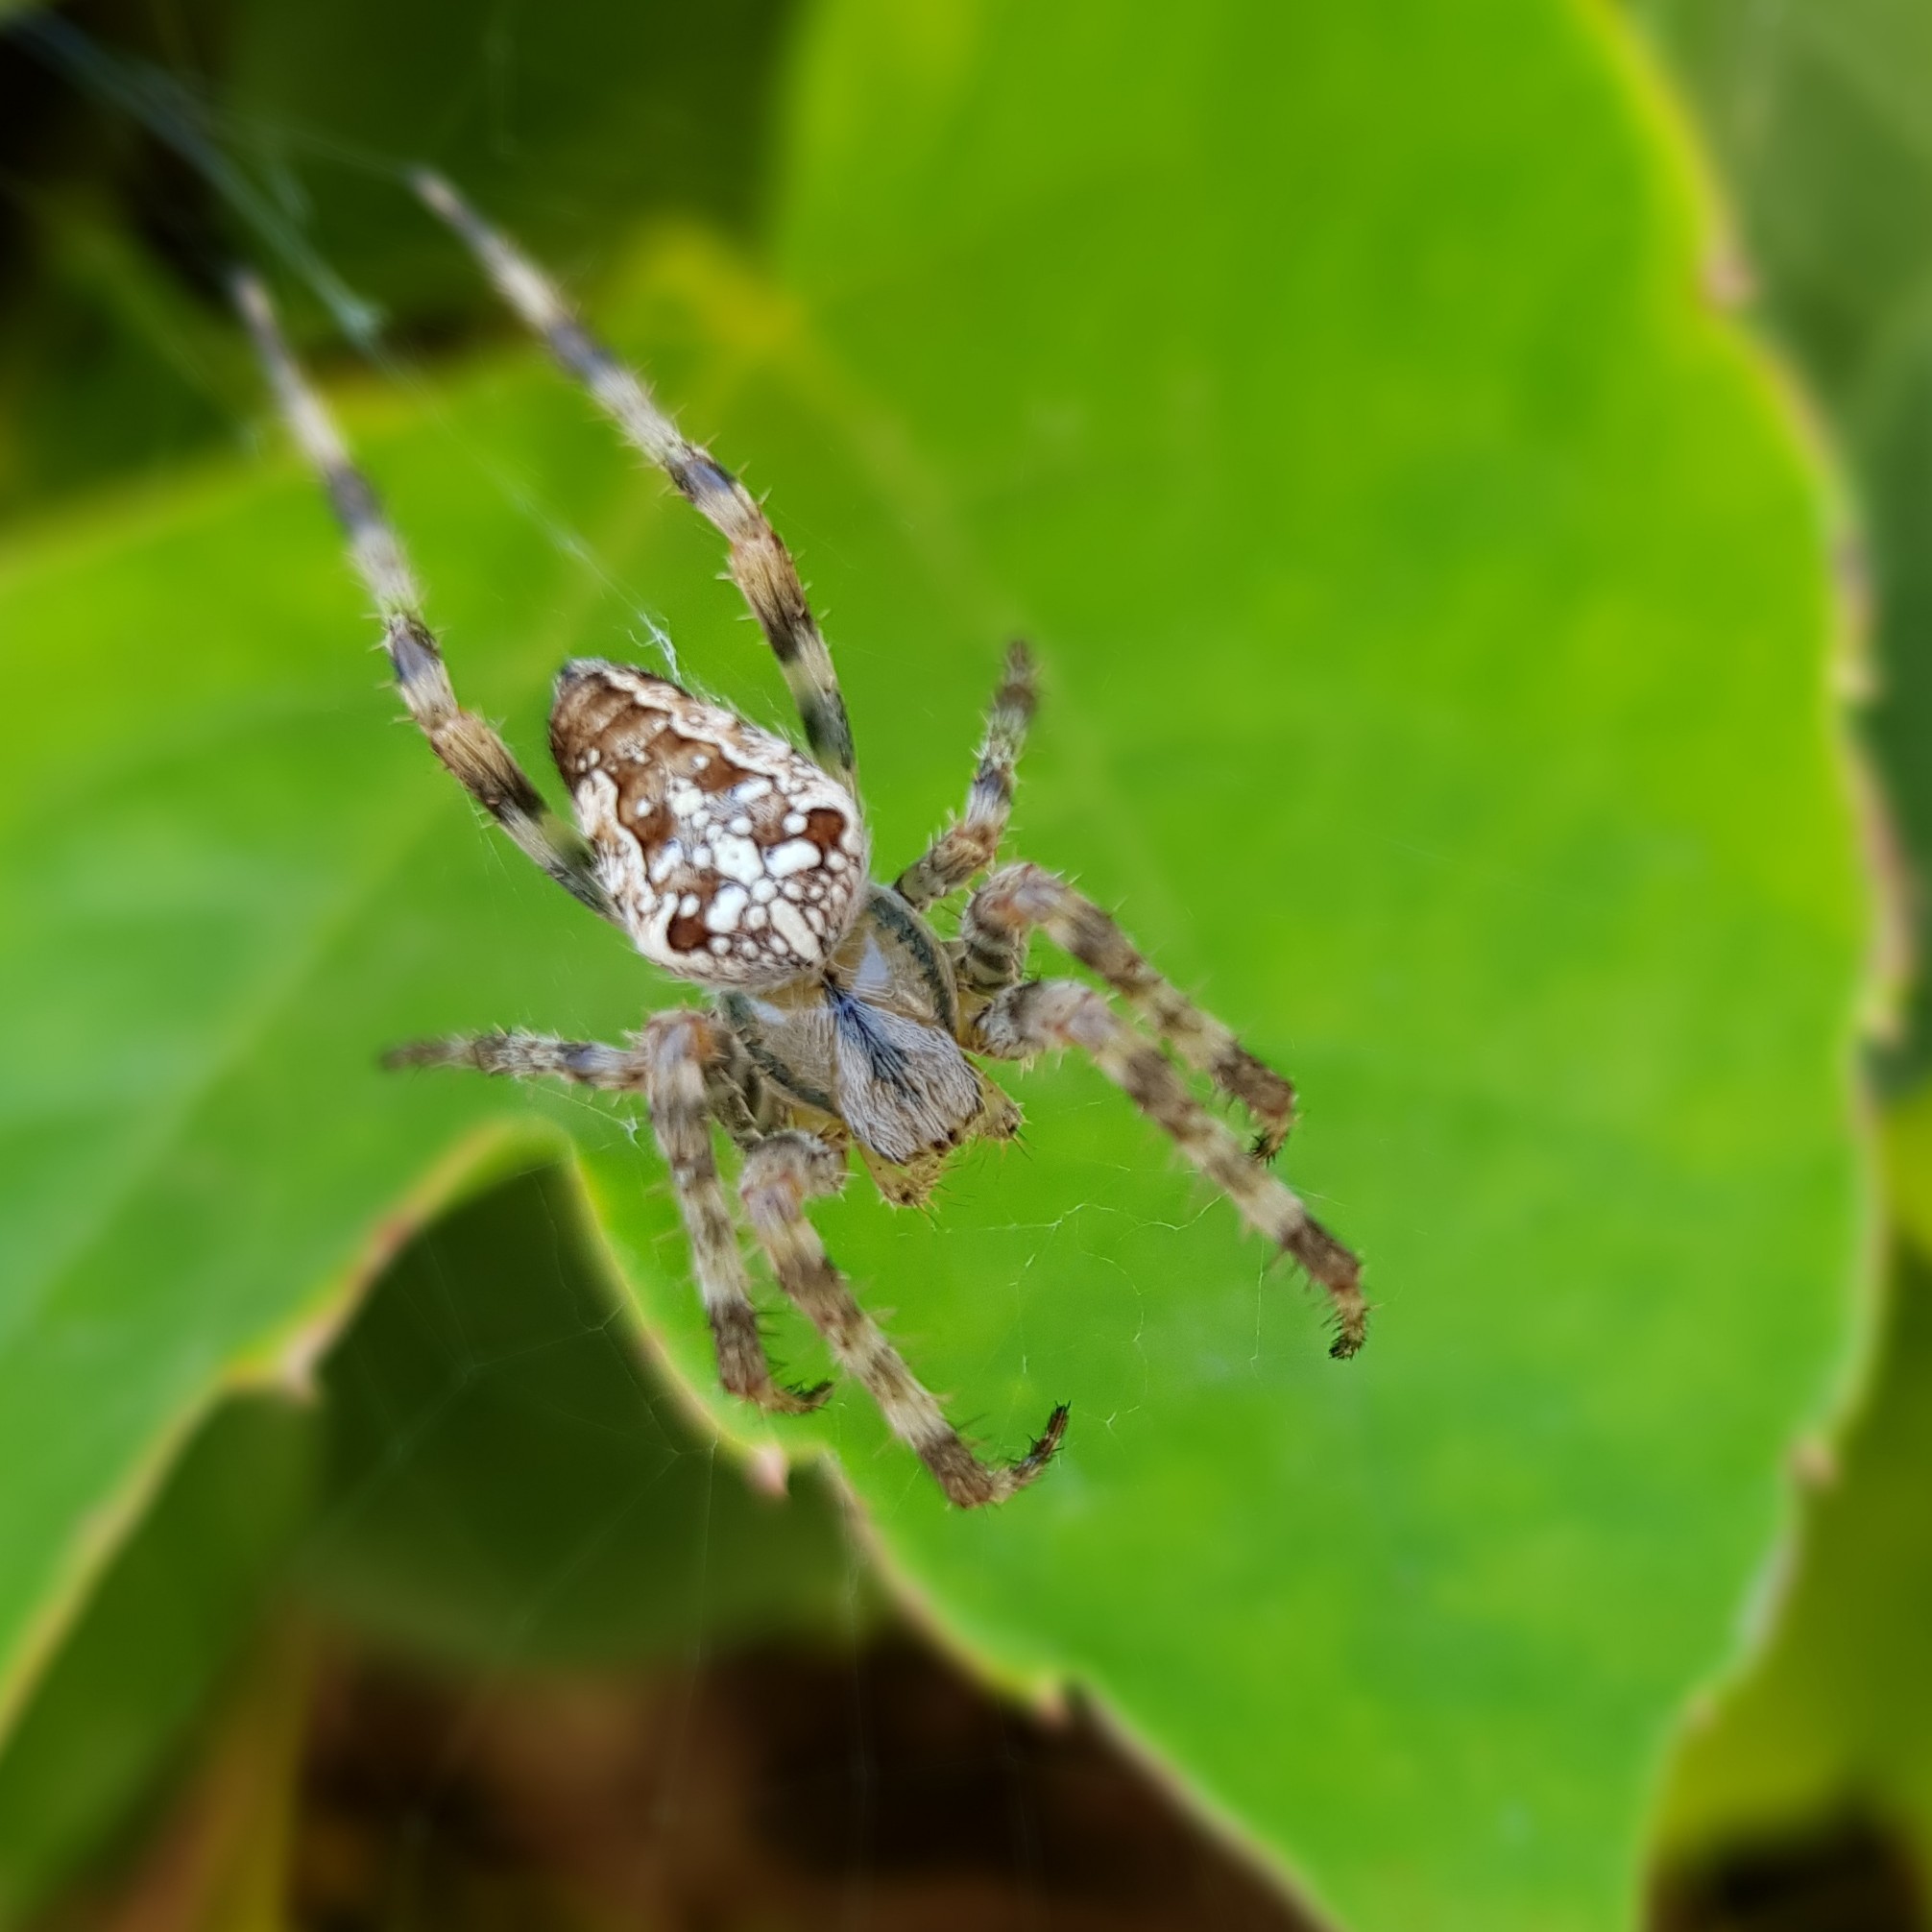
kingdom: Animalia
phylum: Arthropoda
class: Arachnida
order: Araneae
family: Araneidae
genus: Araneus
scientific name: Araneus diadematus
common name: Cross orbweaver
